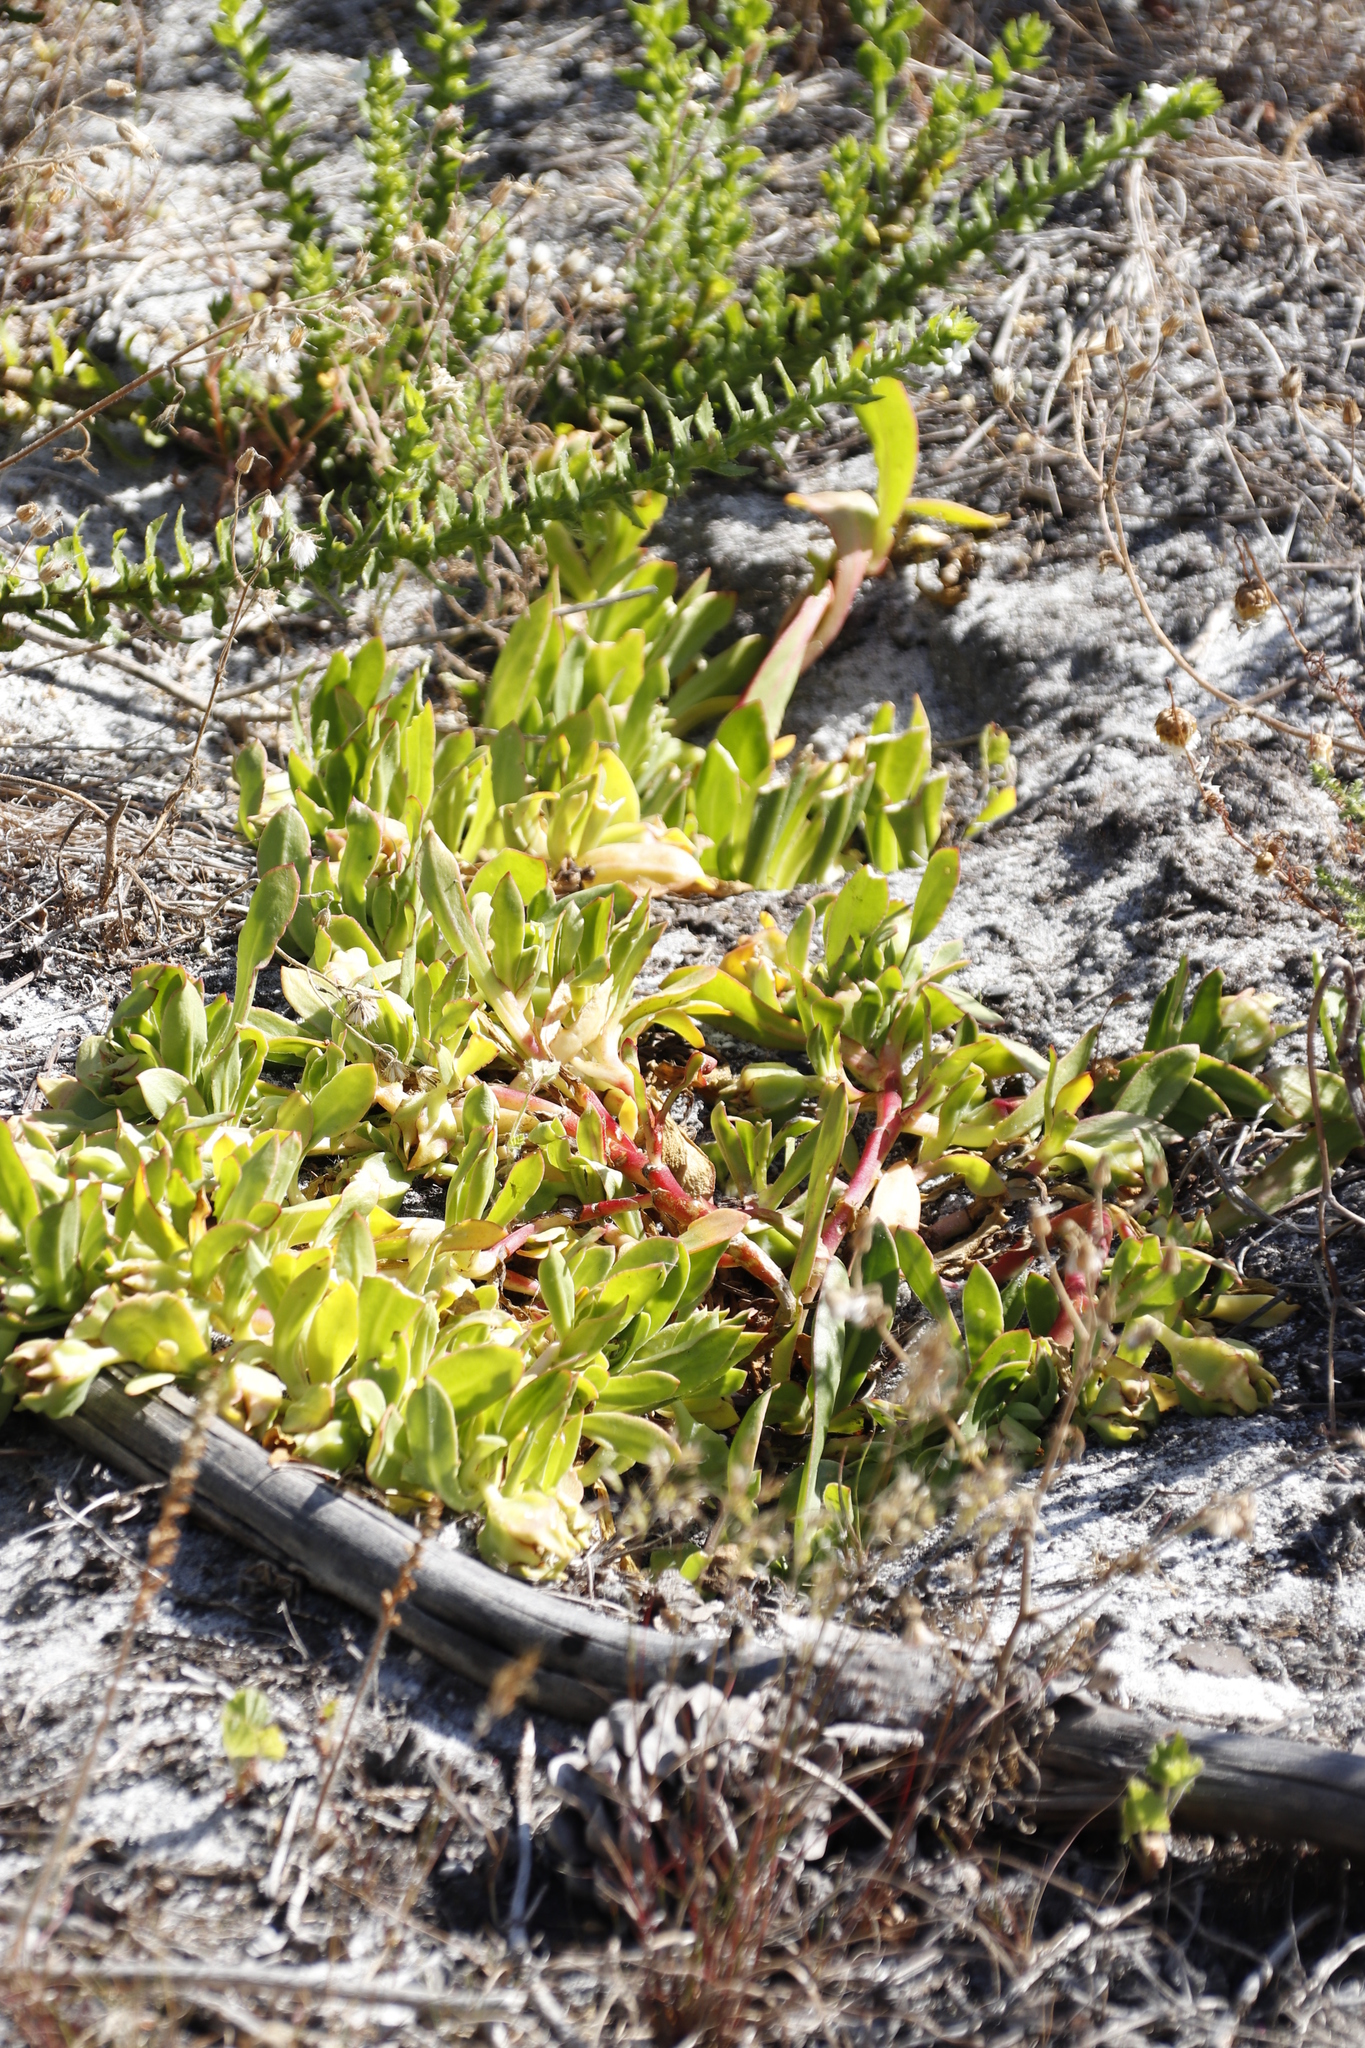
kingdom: Plantae
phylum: Tracheophyta
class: Magnoliopsida
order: Caryophyllales
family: Aizoaceae
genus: Skiatophytum
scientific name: Skiatophytum tripolium
